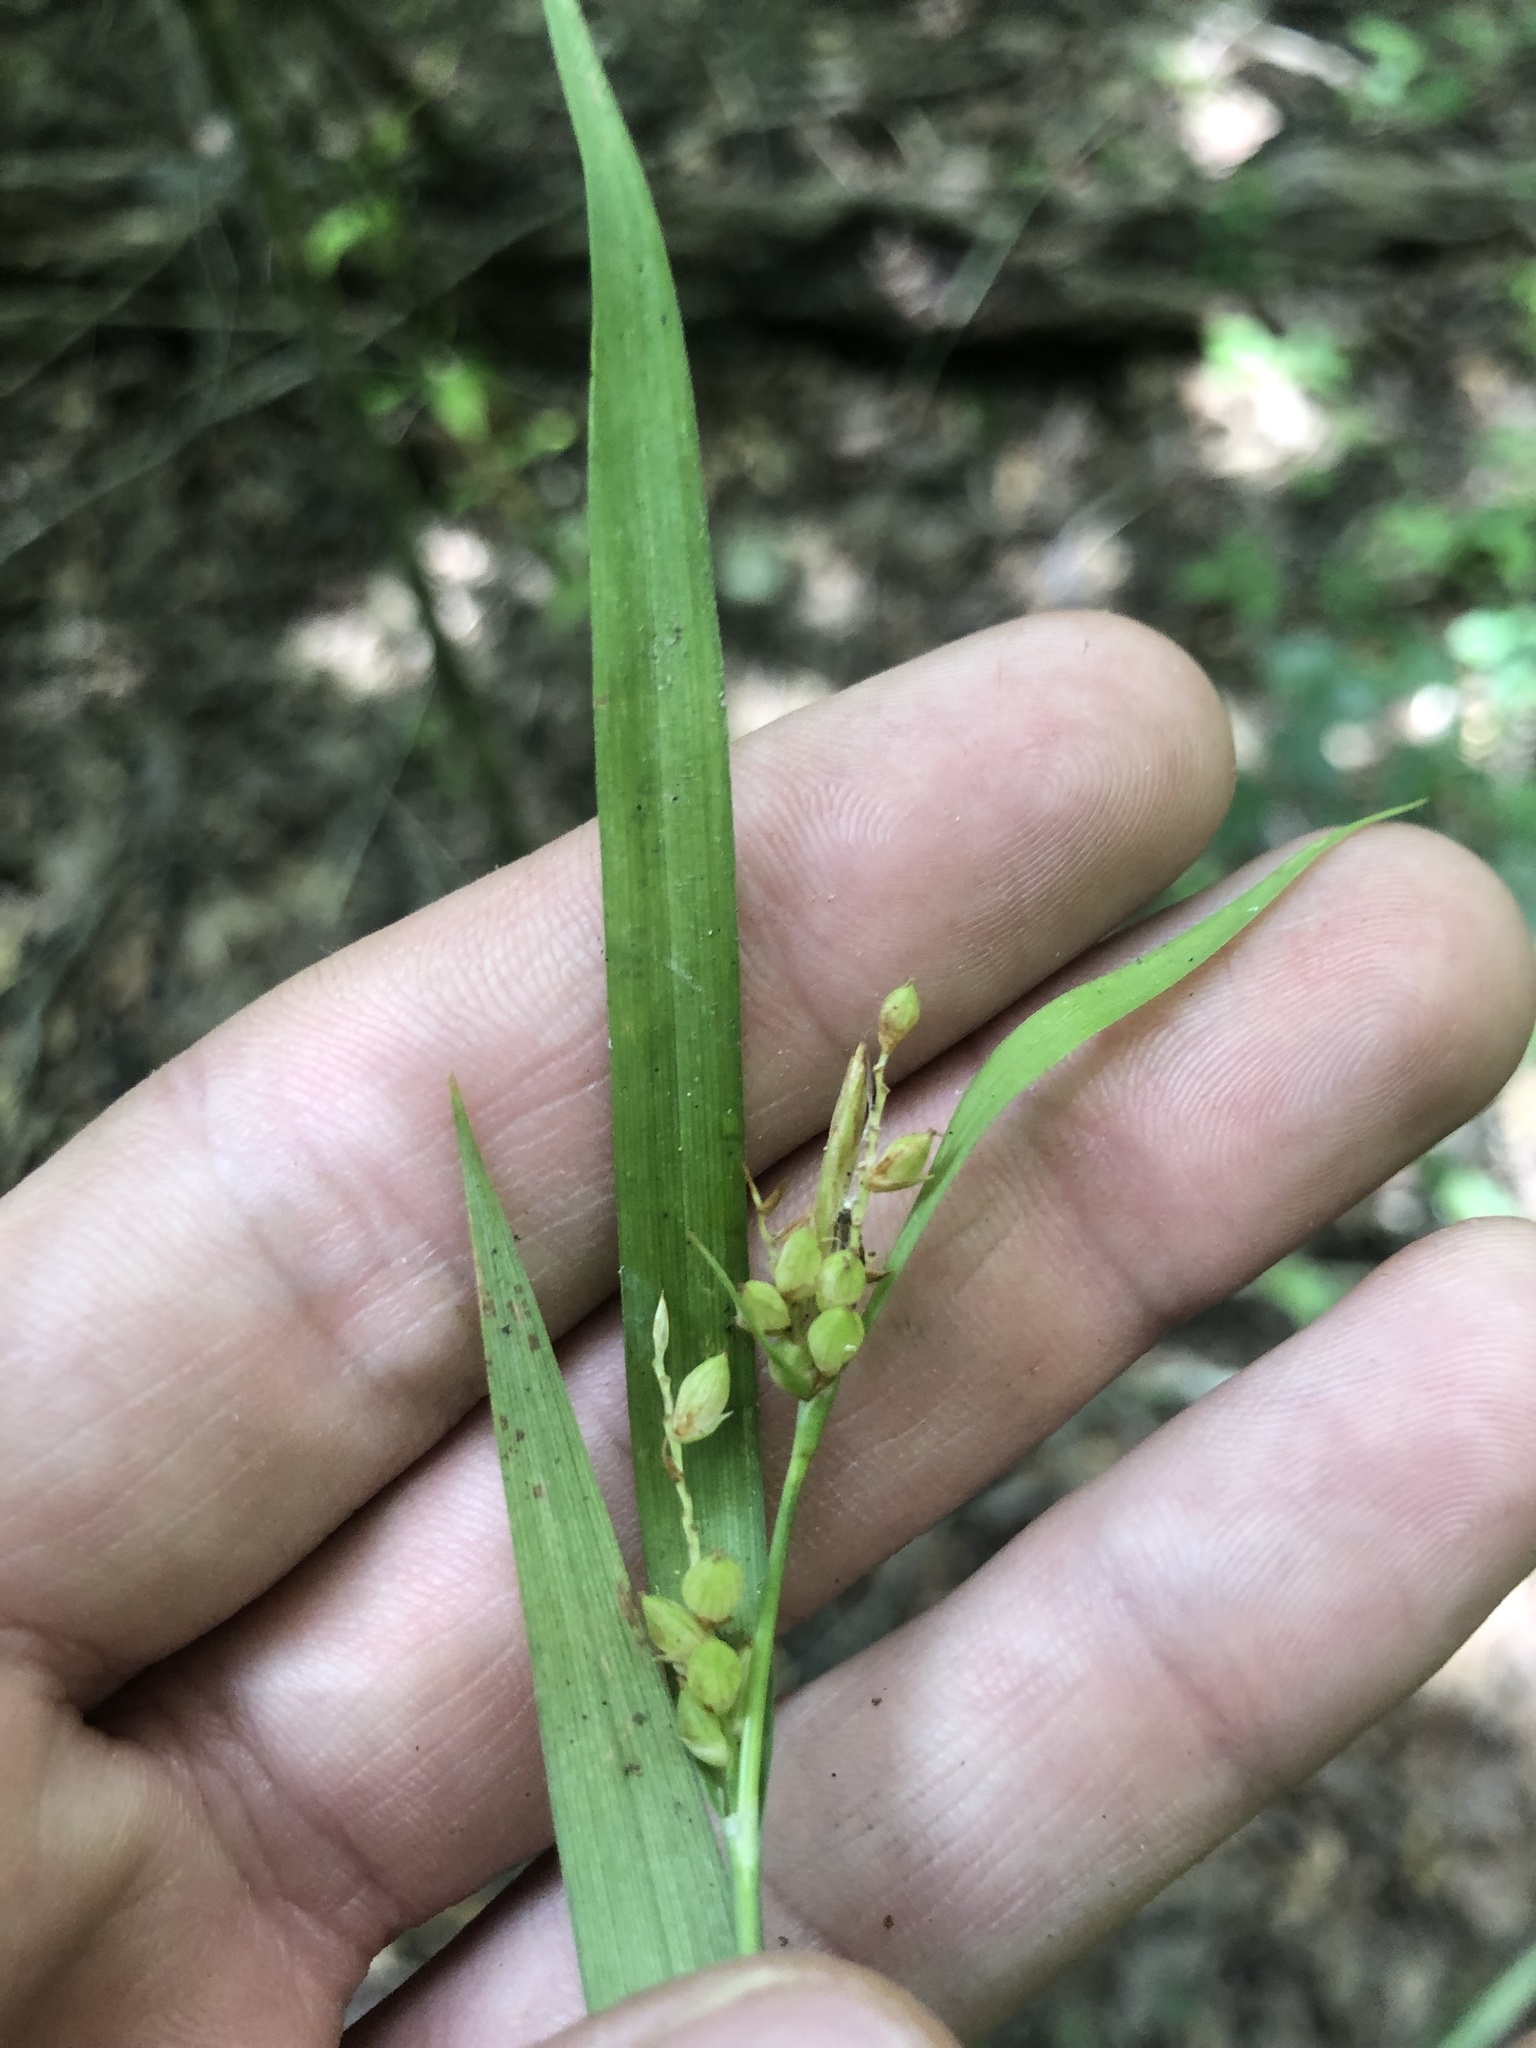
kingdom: Plantae
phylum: Tracheophyta
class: Liliopsida
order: Poales
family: Cyperaceae
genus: Carex
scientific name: Carex flaccosperma
